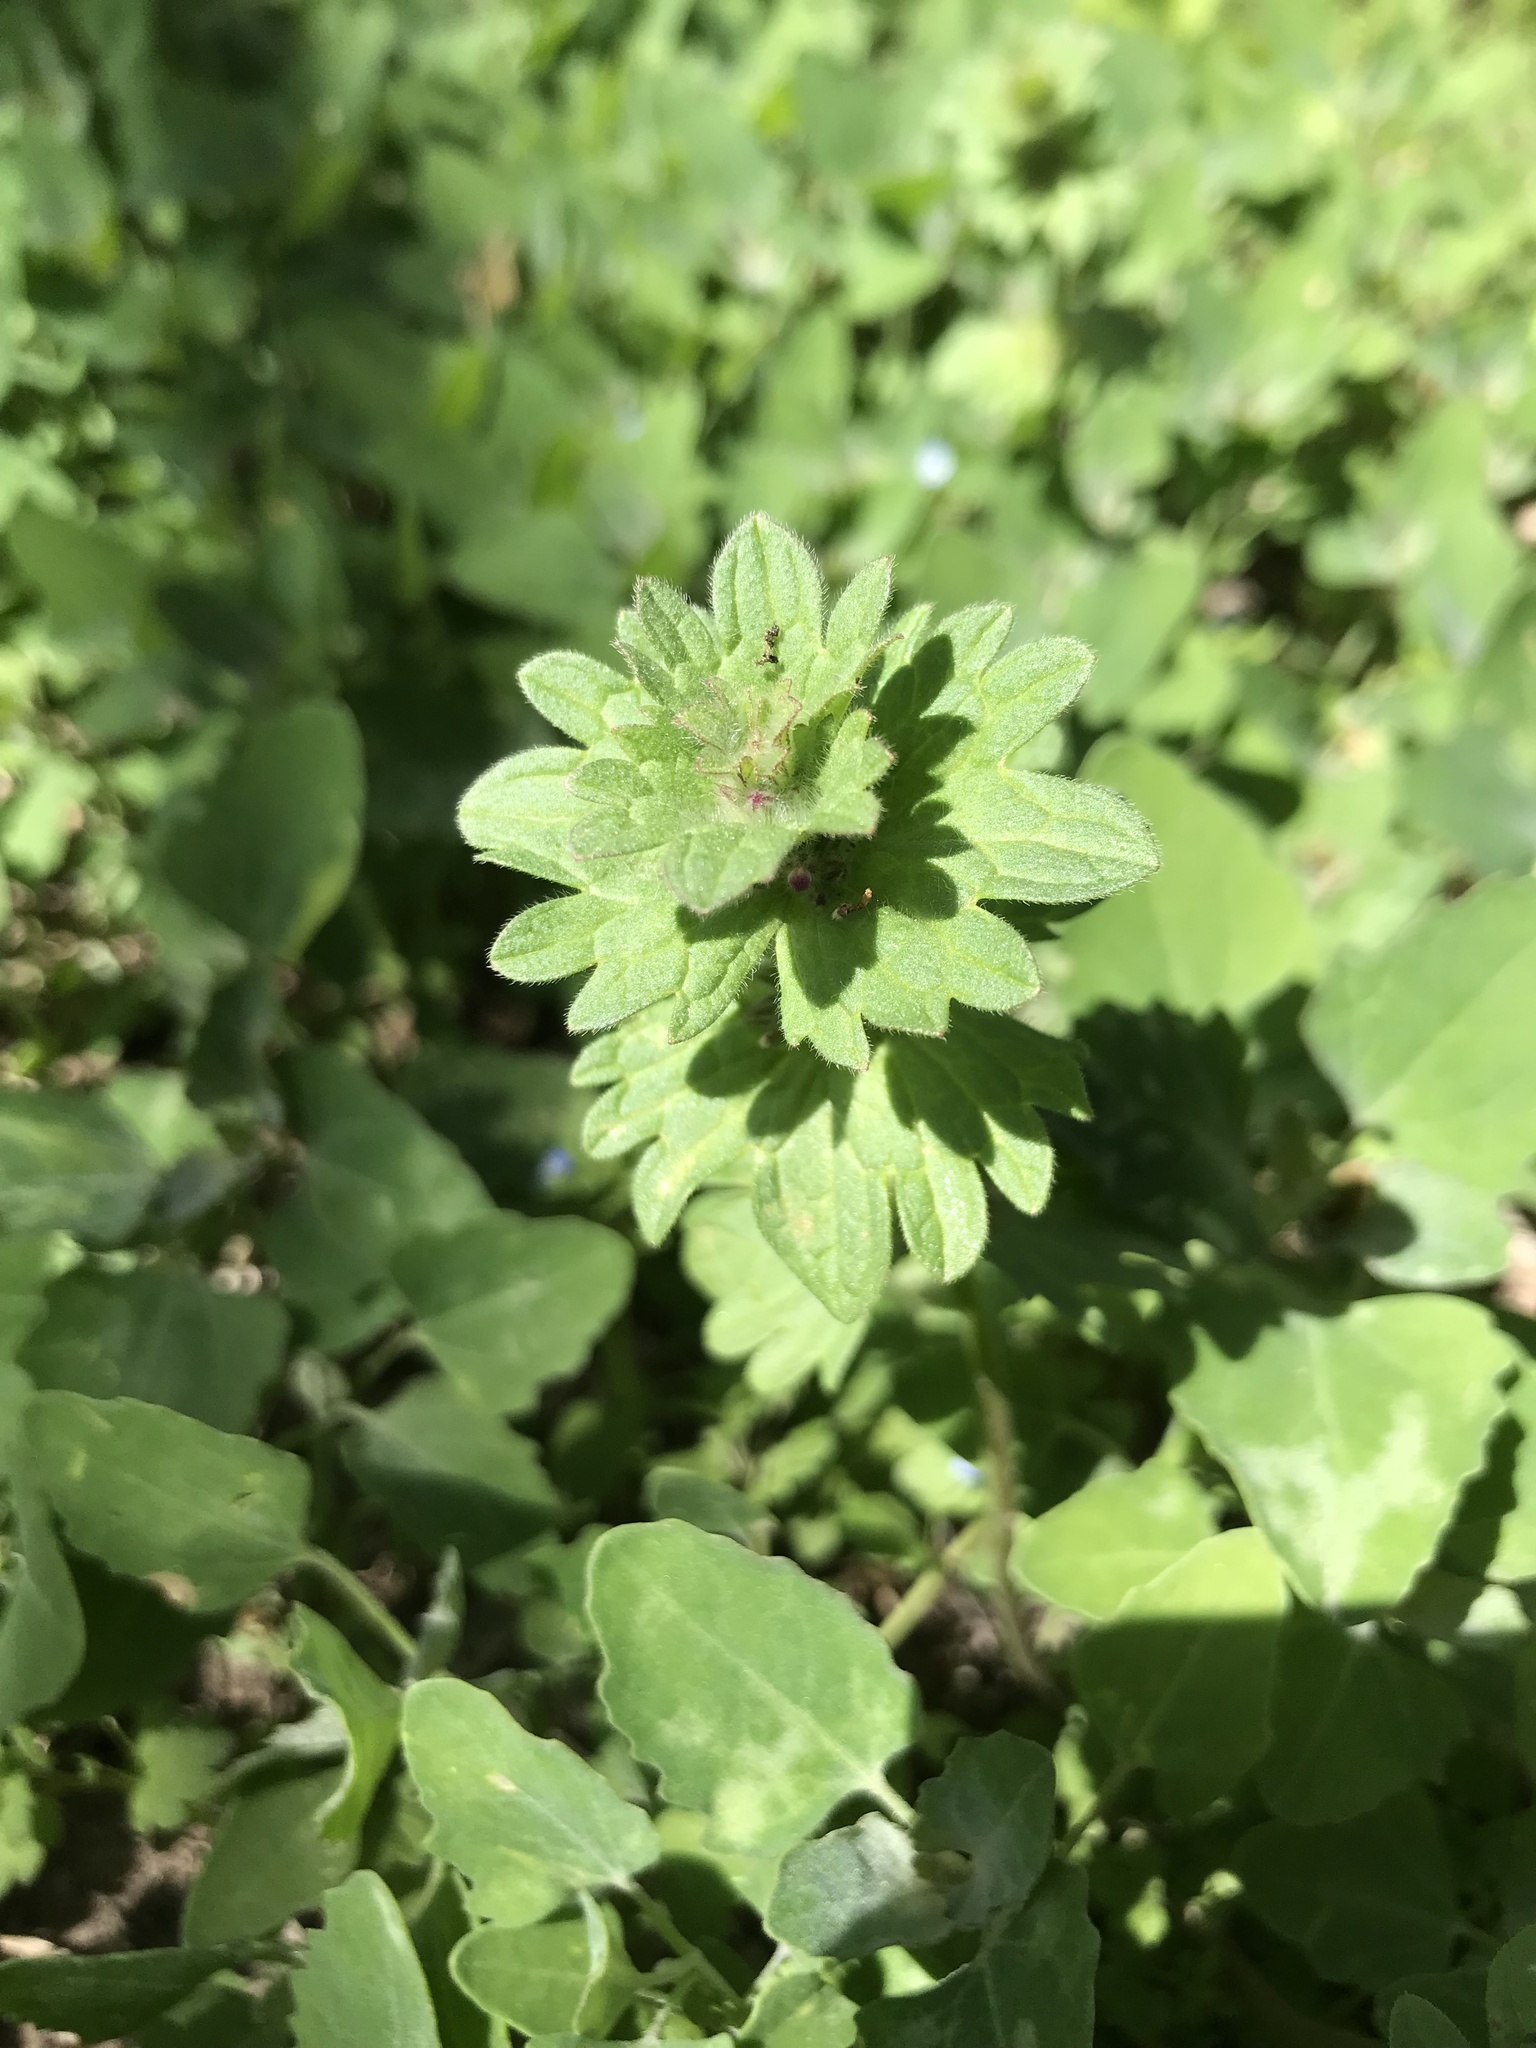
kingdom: Plantae
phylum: Tracheophyta
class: Magnoliopsida
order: Lamiales
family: Lamiaceae
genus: Lamium
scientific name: Lamium amplexicaule
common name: Henbit dead-nettle
